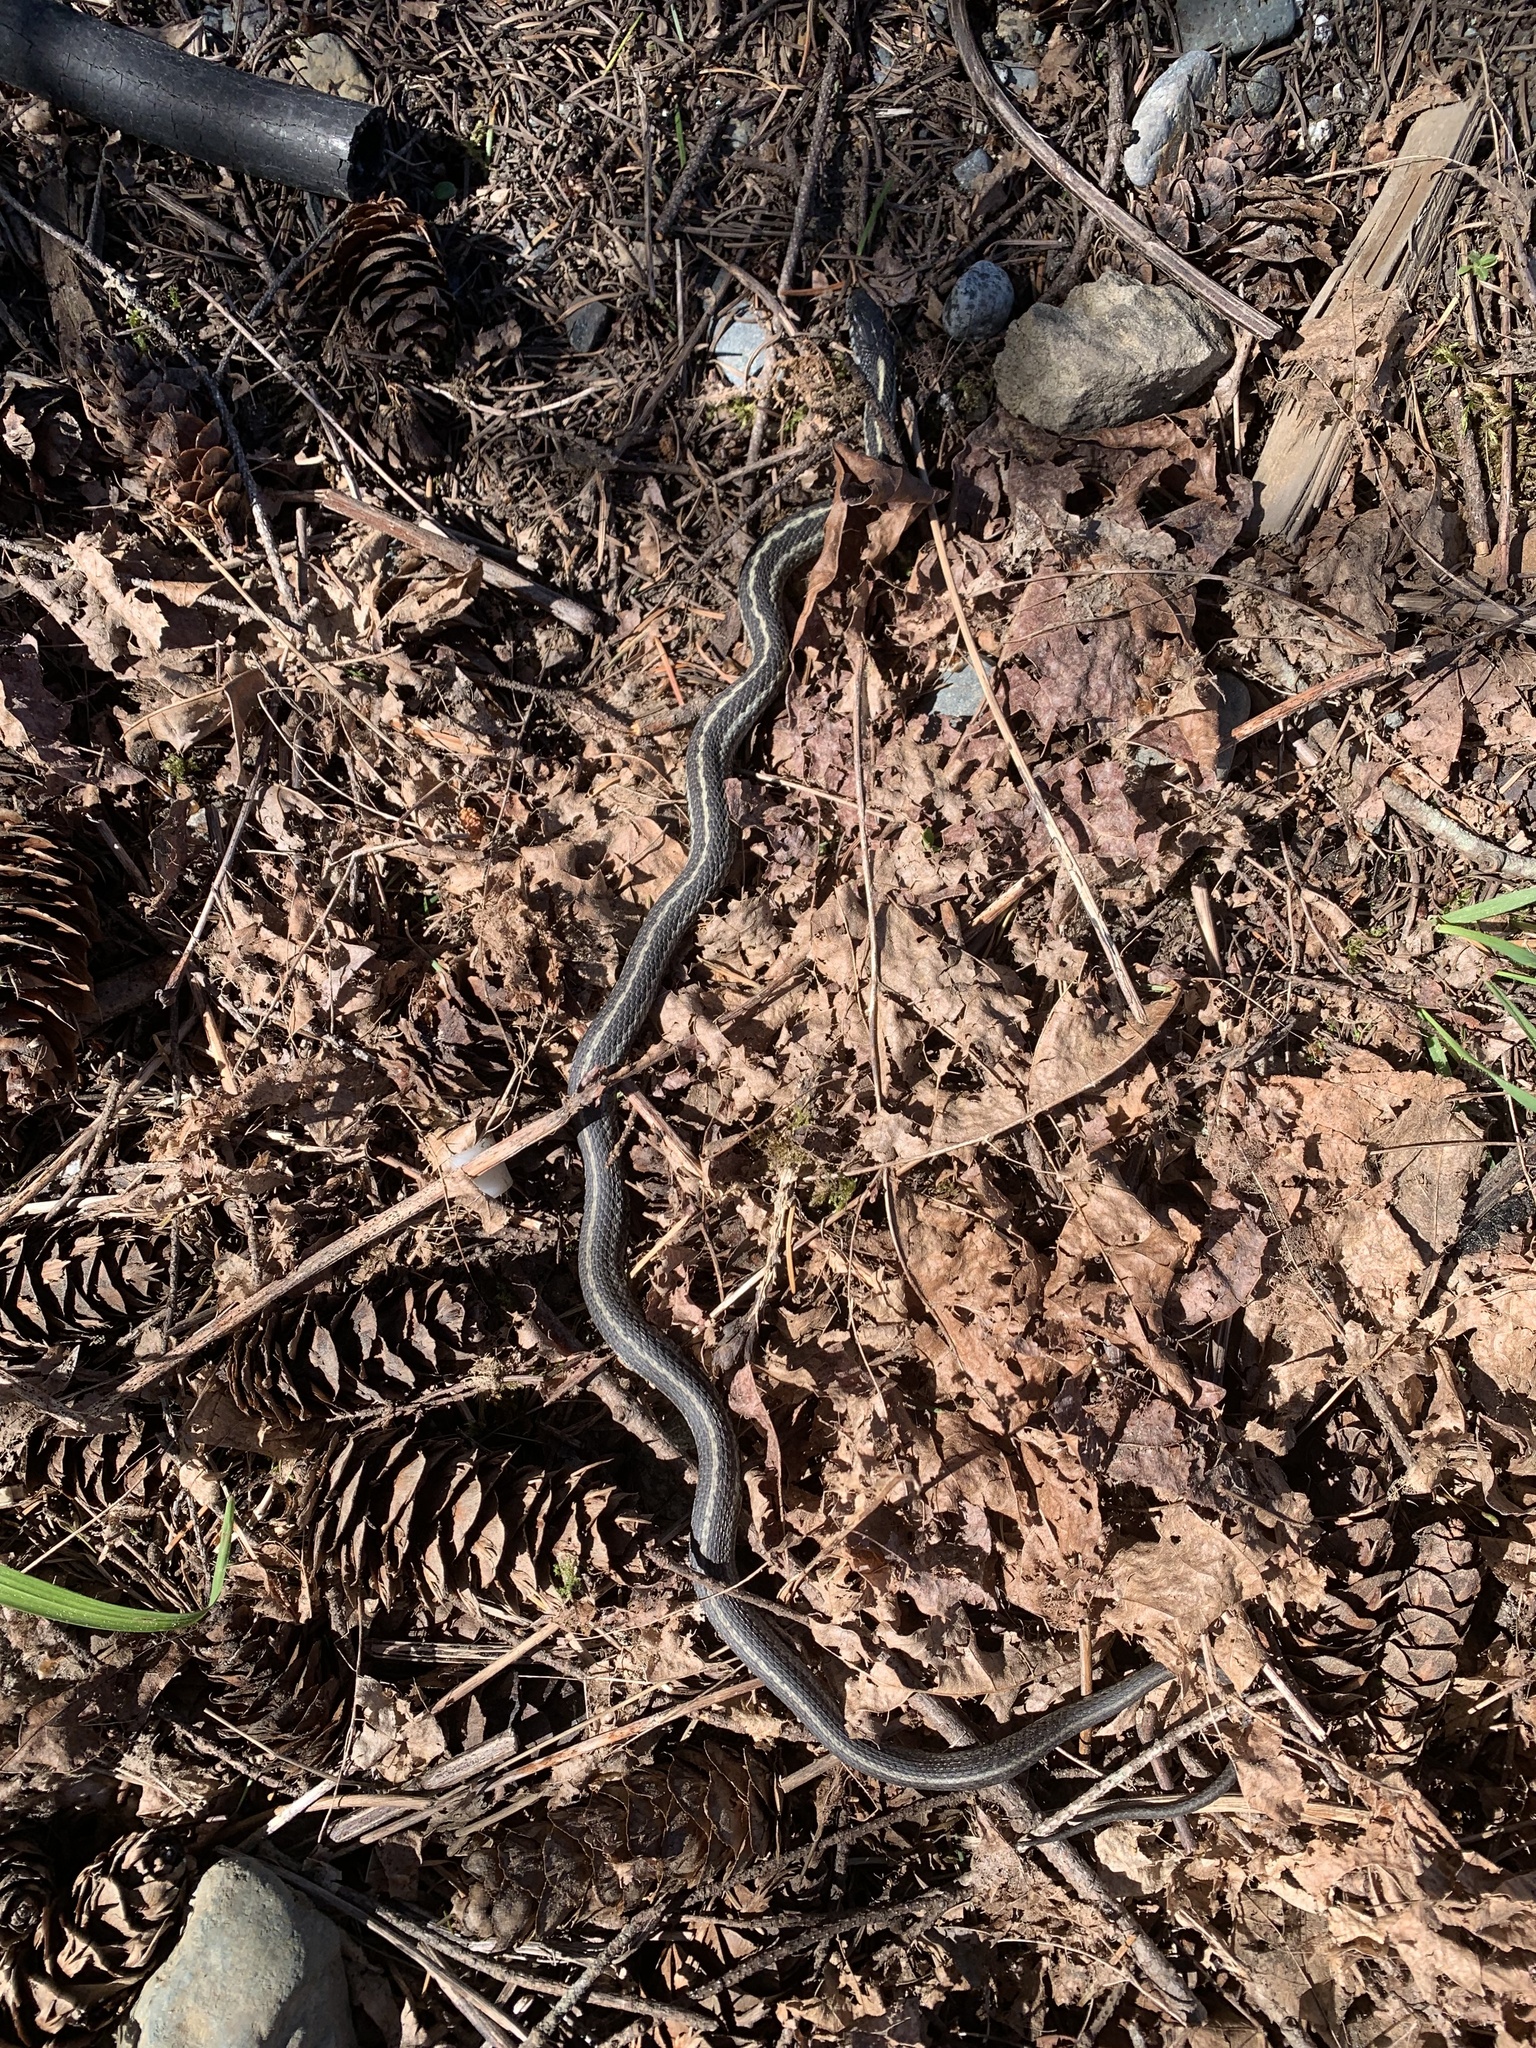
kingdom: Animalia
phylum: Chordata
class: Squamata
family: Colubridae
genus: Thamnophis
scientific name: Thamnophis elegans
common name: Western terrestrial garter snake
